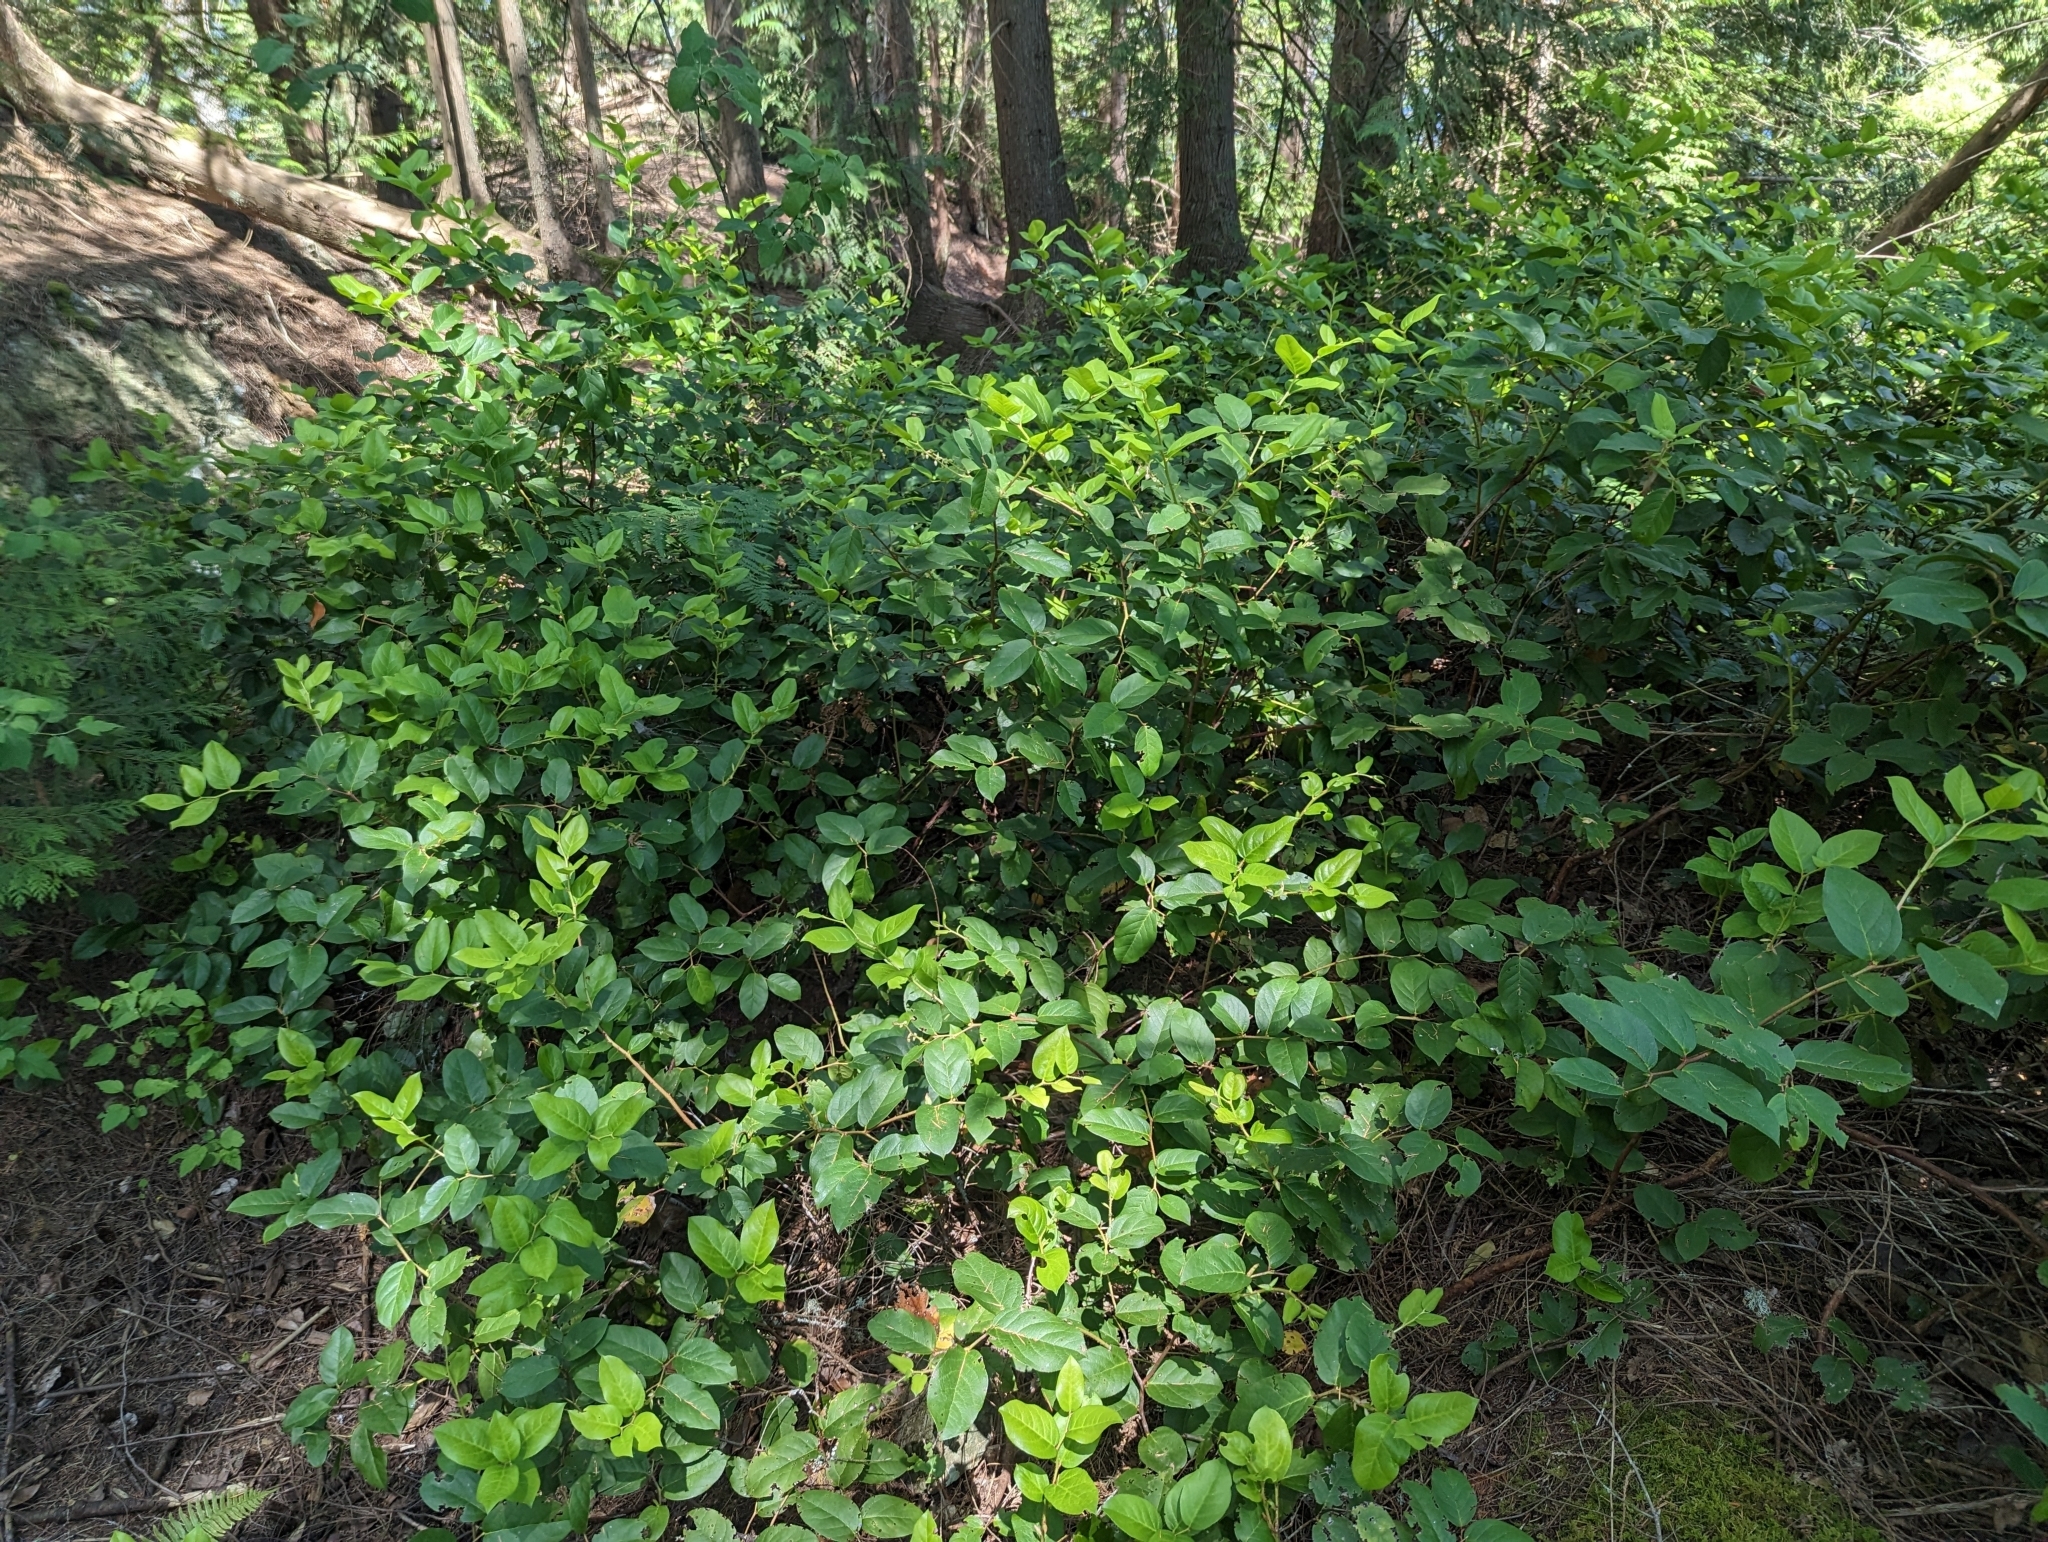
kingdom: Plantae
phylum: Tracheophyta
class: Magnoliopsida
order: Ericales
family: Ericaceae
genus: Gaultheria
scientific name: Gaultheria shallon
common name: Shallon
